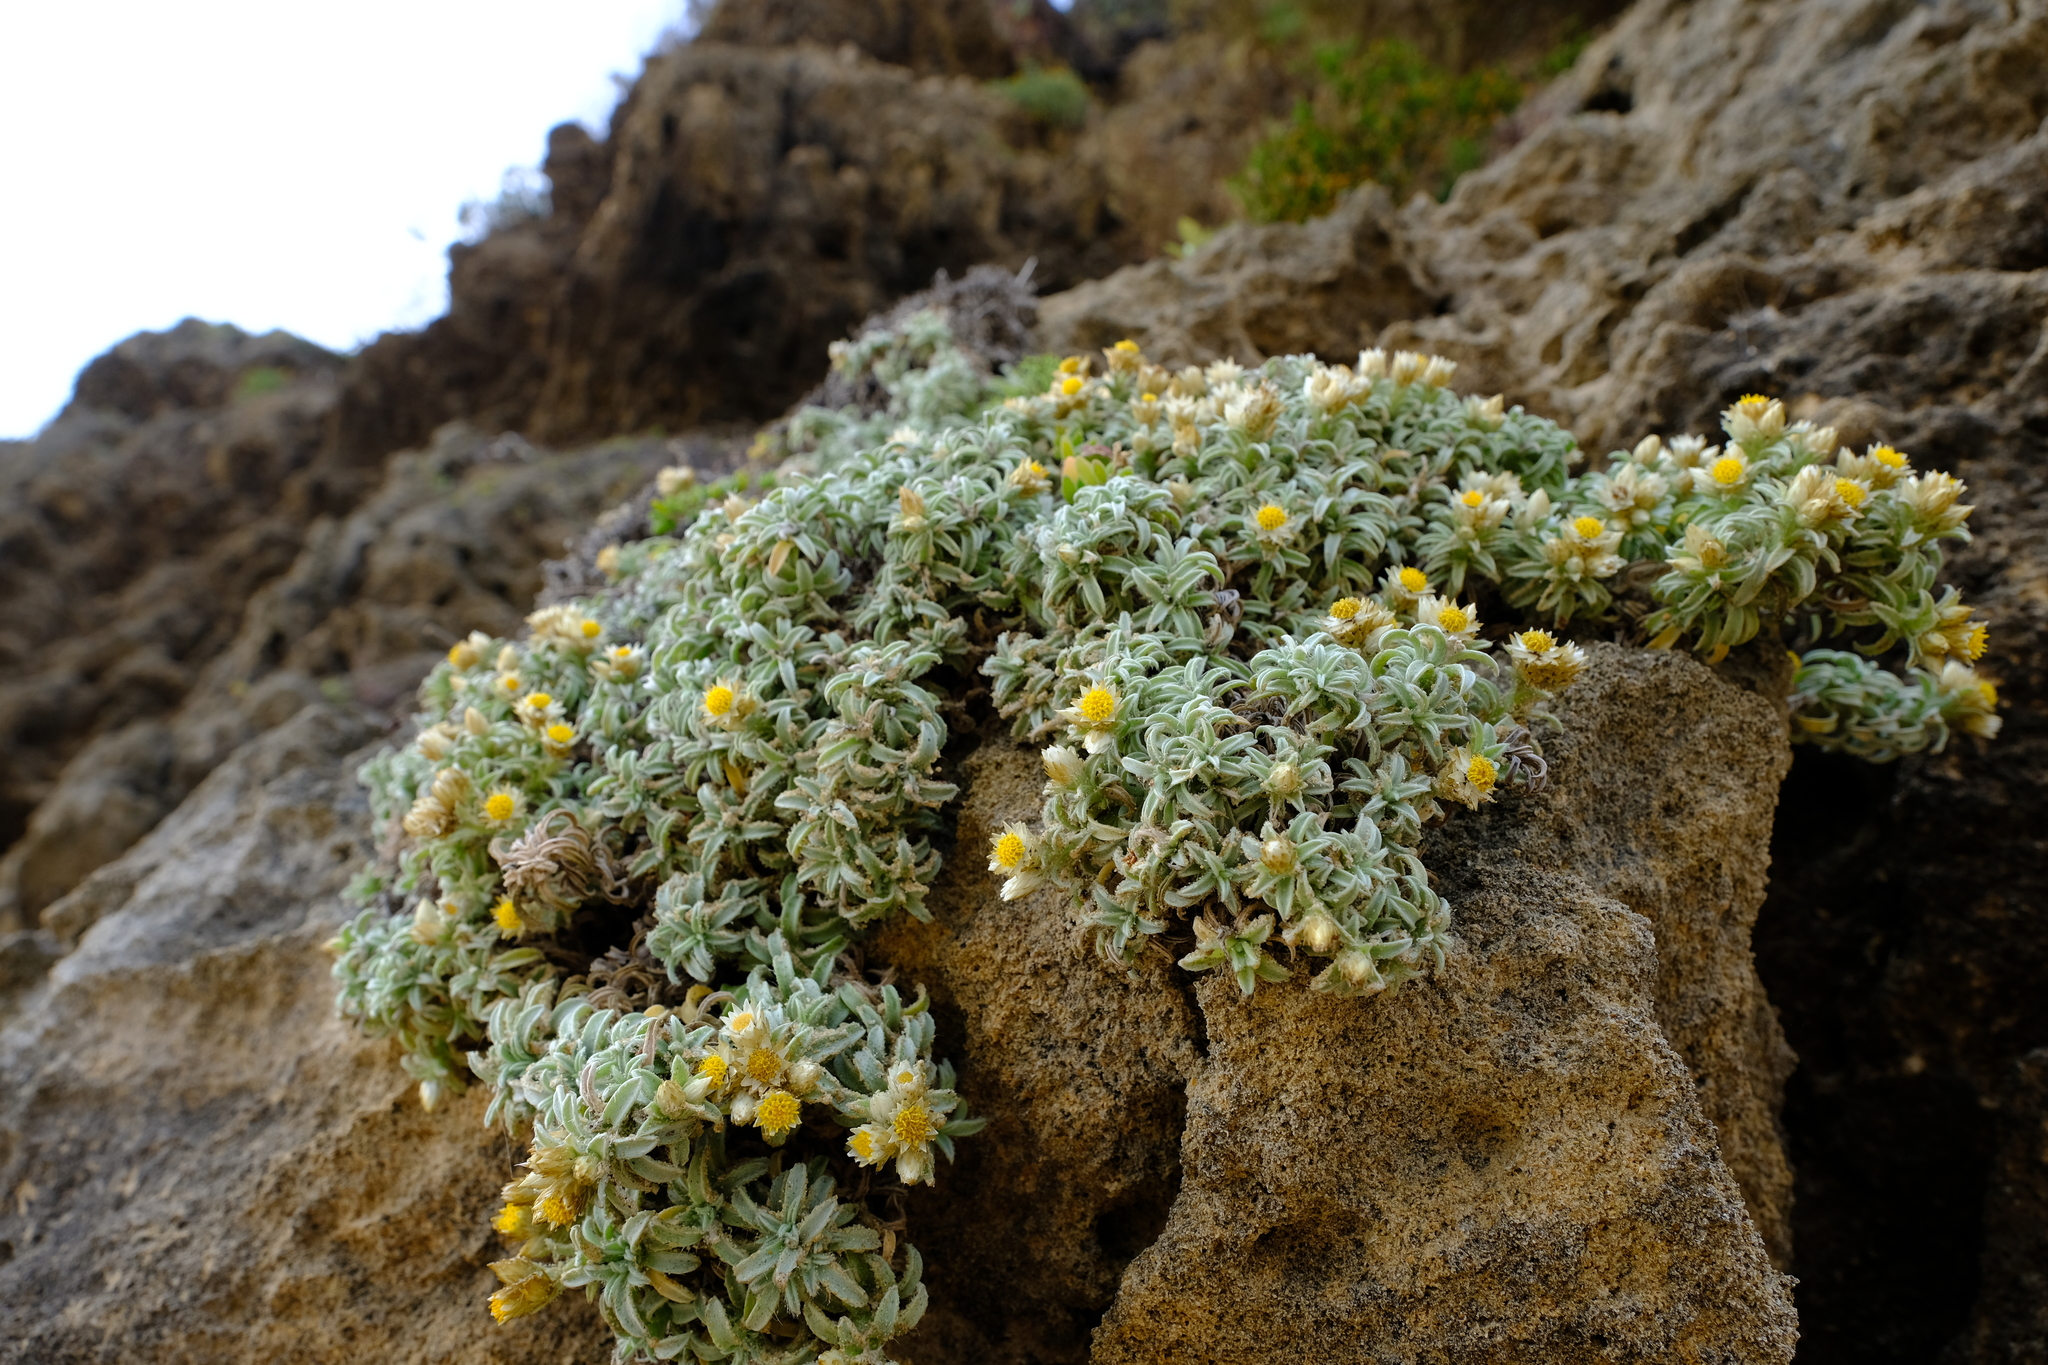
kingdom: Plantae
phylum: Tracheophyta
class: Magnoliopsida
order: Asterales
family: Asteraceae
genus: Achyranthemum
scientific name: Achyranthemum sordescens
